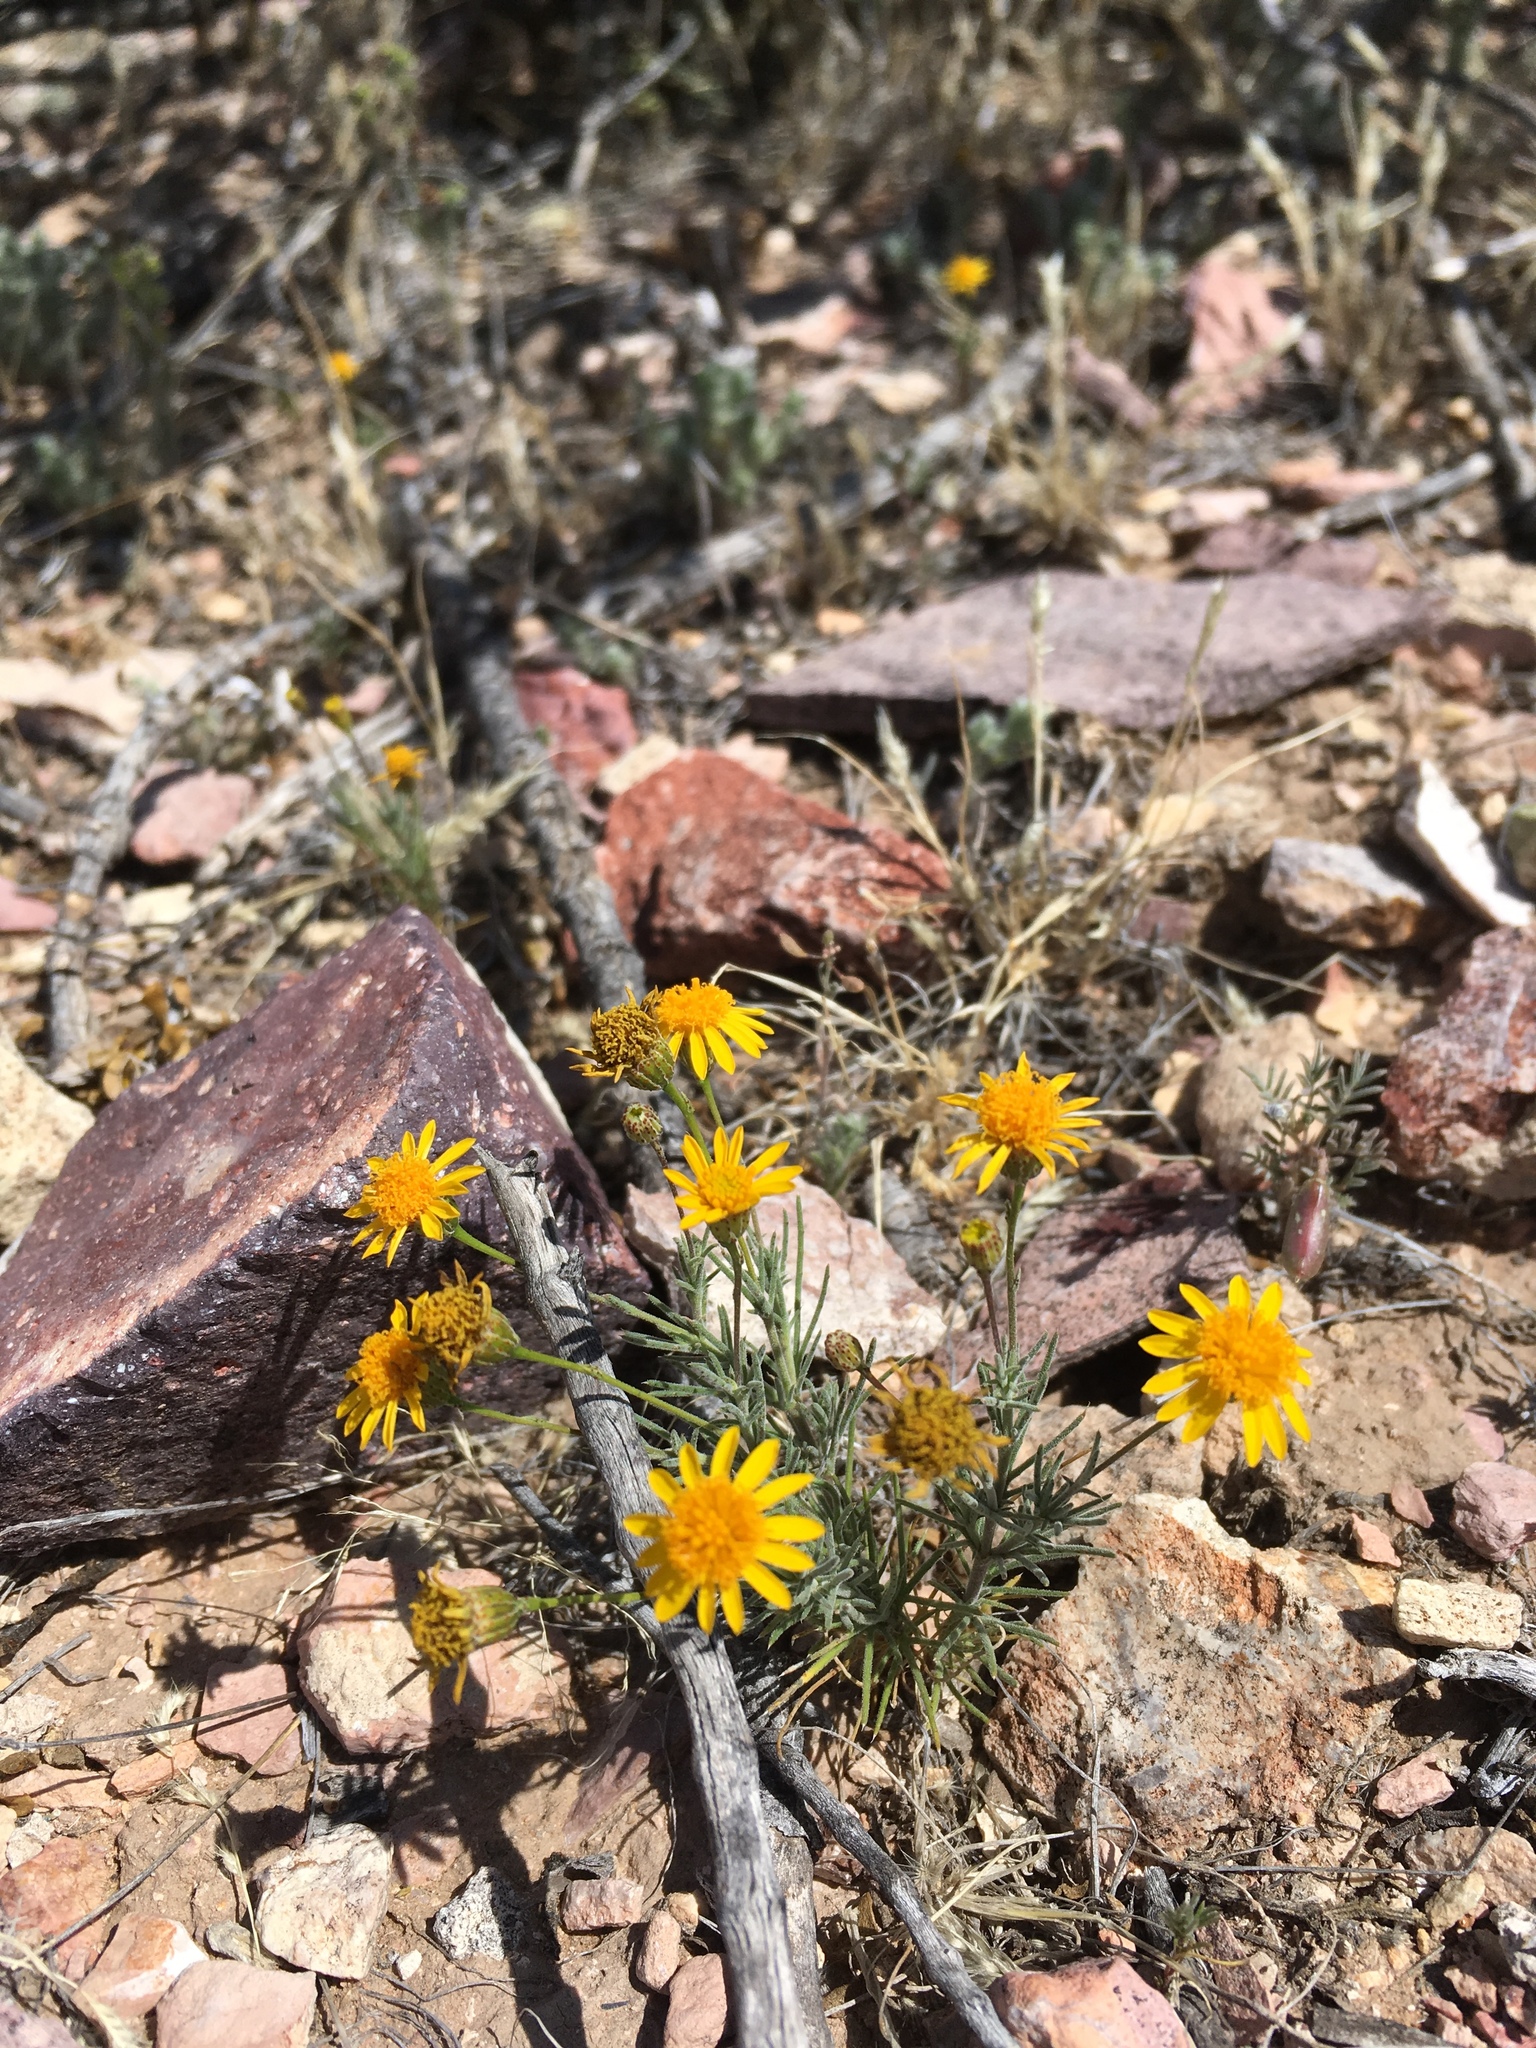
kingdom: Plantae
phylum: Tracheophyta
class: Magnoliopsida
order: Asterales
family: Asteraceae
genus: Thymophylla
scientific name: Thymophylla pentachaeta
